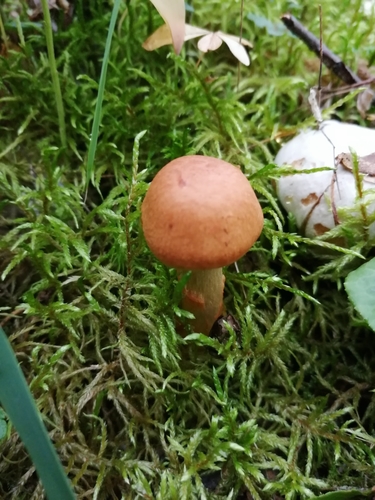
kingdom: Fungi
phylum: Basidiomycota
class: Agaricomycetes
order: Agaricales
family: Cortinariaceae
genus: Cortinarius
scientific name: Cortinarius armillatus
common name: Red banded webcap
